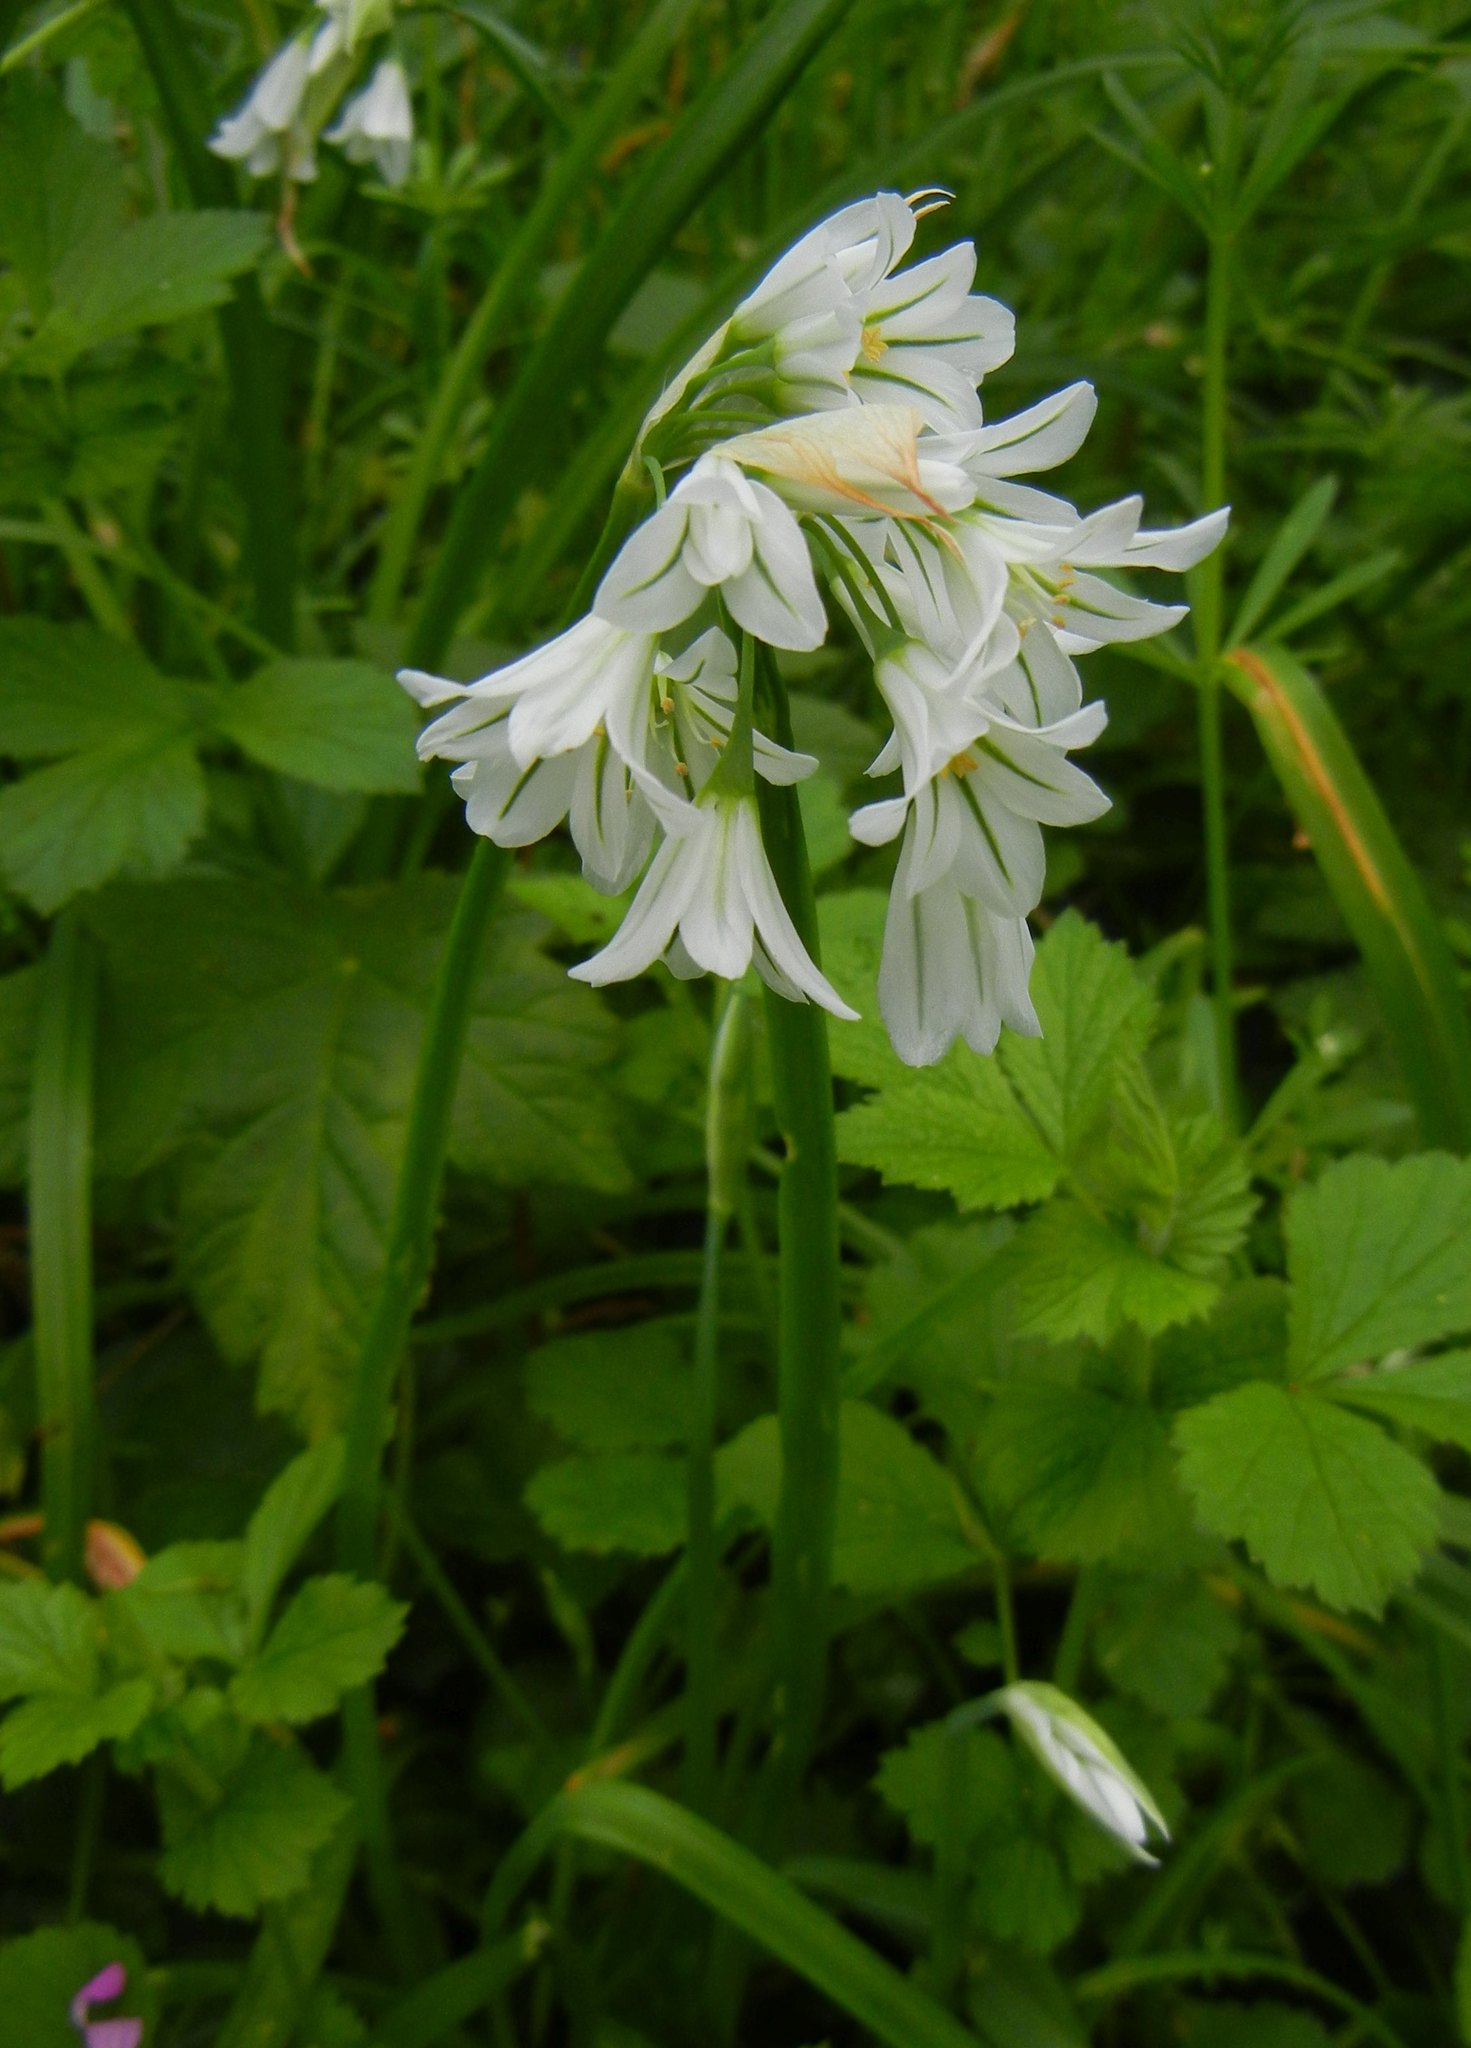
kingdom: Plantae
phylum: Tracheophyta
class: Liliopsida
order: Asparagales
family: Amaryllidaceae
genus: Allium
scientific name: Allium triquetrum
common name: Three-cornered garlic
